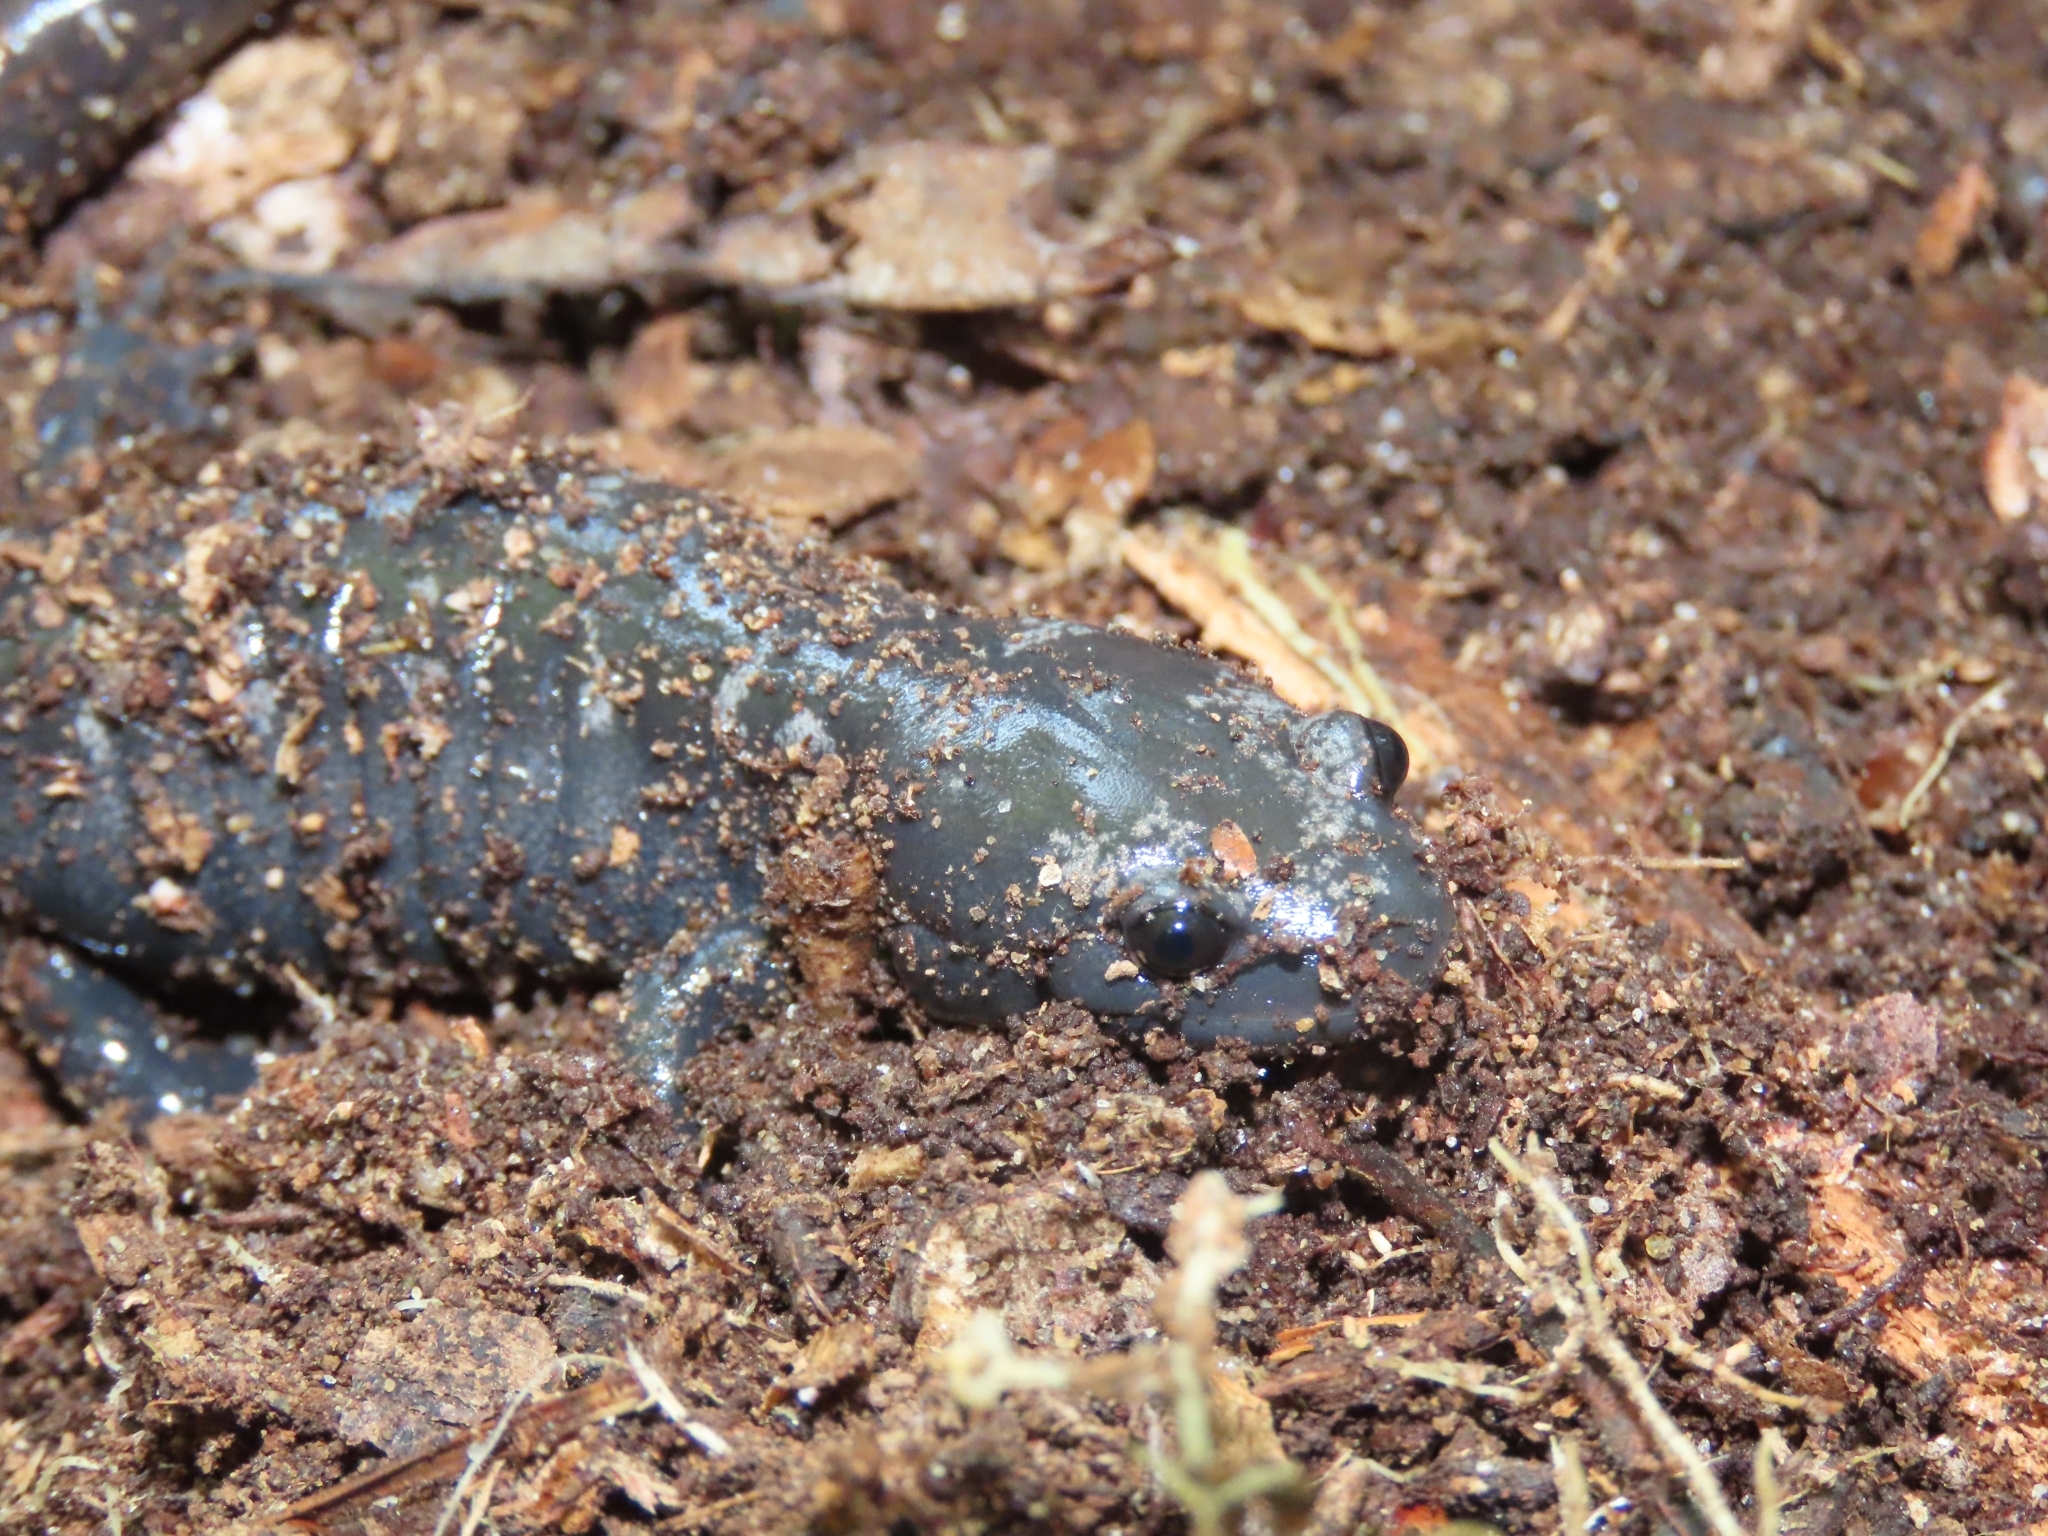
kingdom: Animalia
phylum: Chordata
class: Amphibia
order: Caudata
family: Ambystomatidae
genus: Ambystoma
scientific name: Ambystoma opacum
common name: Marbled salamander
